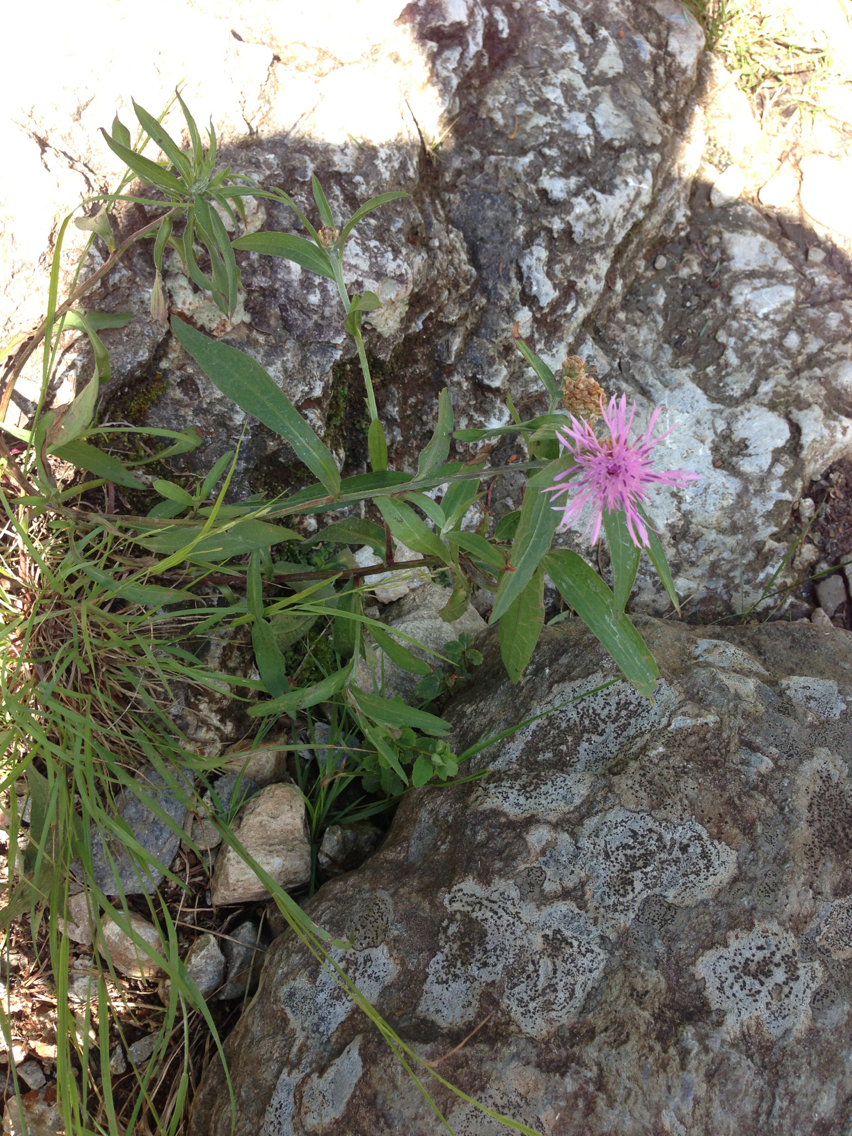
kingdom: Plantae
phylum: Tracheophyta
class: Magnoliopsida
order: Asterales
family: Asteraceae
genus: Centaurea
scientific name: Centaurea jacea
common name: Brown knapweed
